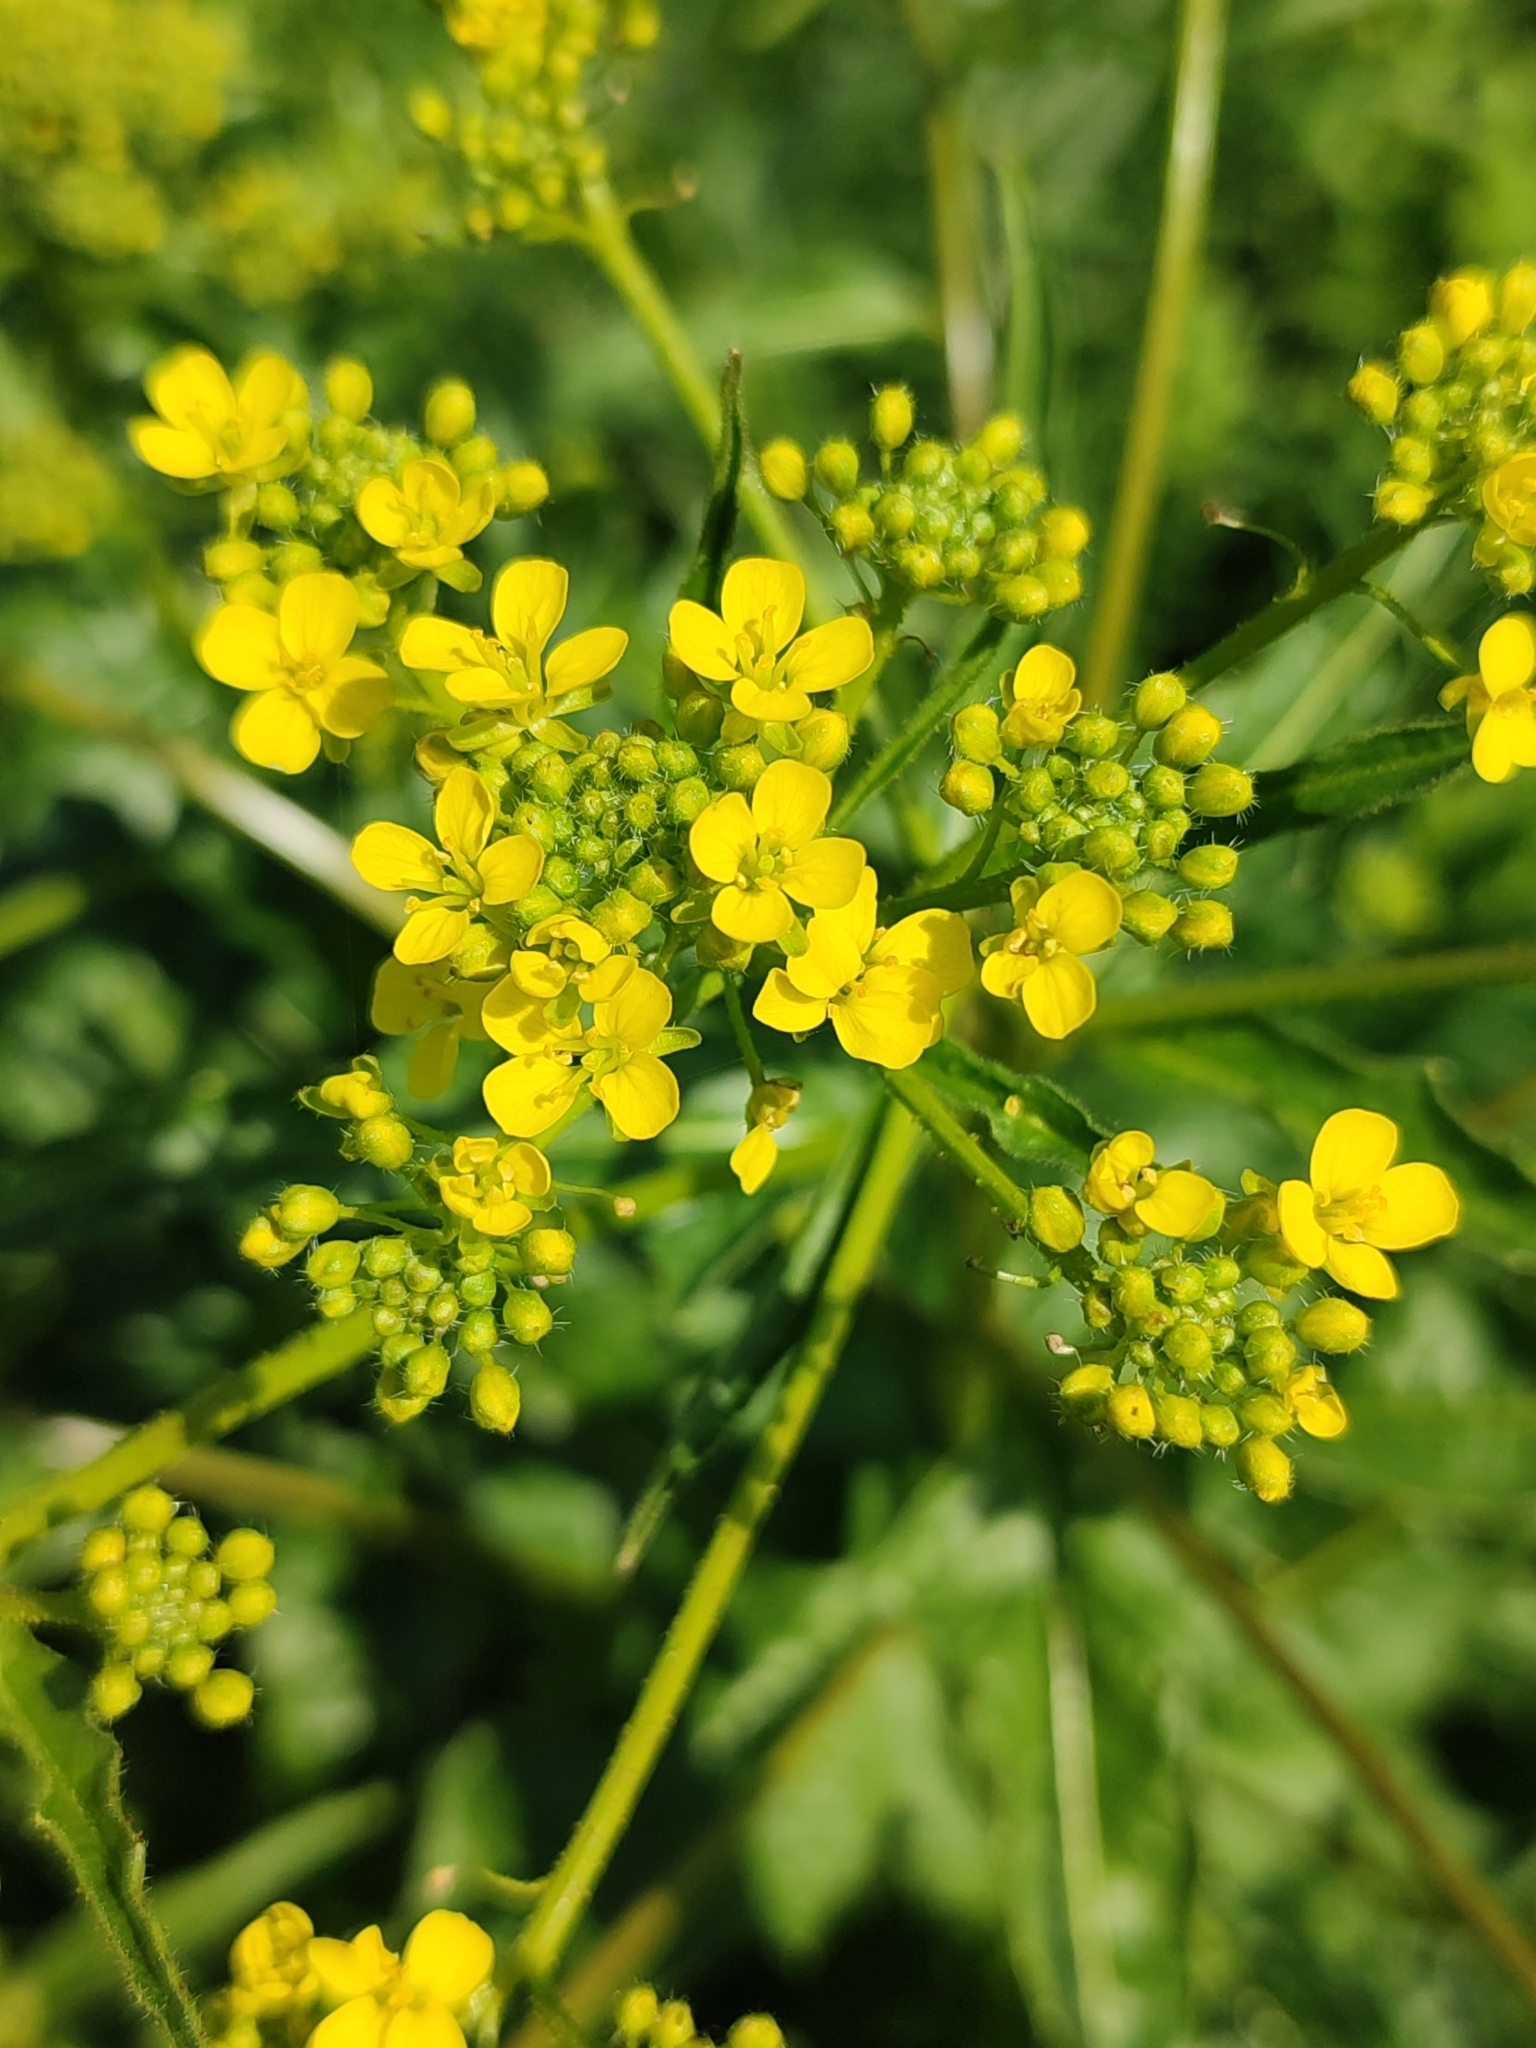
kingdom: Plantae
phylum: Tracheophyta
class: Magnoliopsida
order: Brassicales
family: Brassicaceae
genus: Bunias
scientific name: Bunias orientalis
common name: Warty-cabbage
